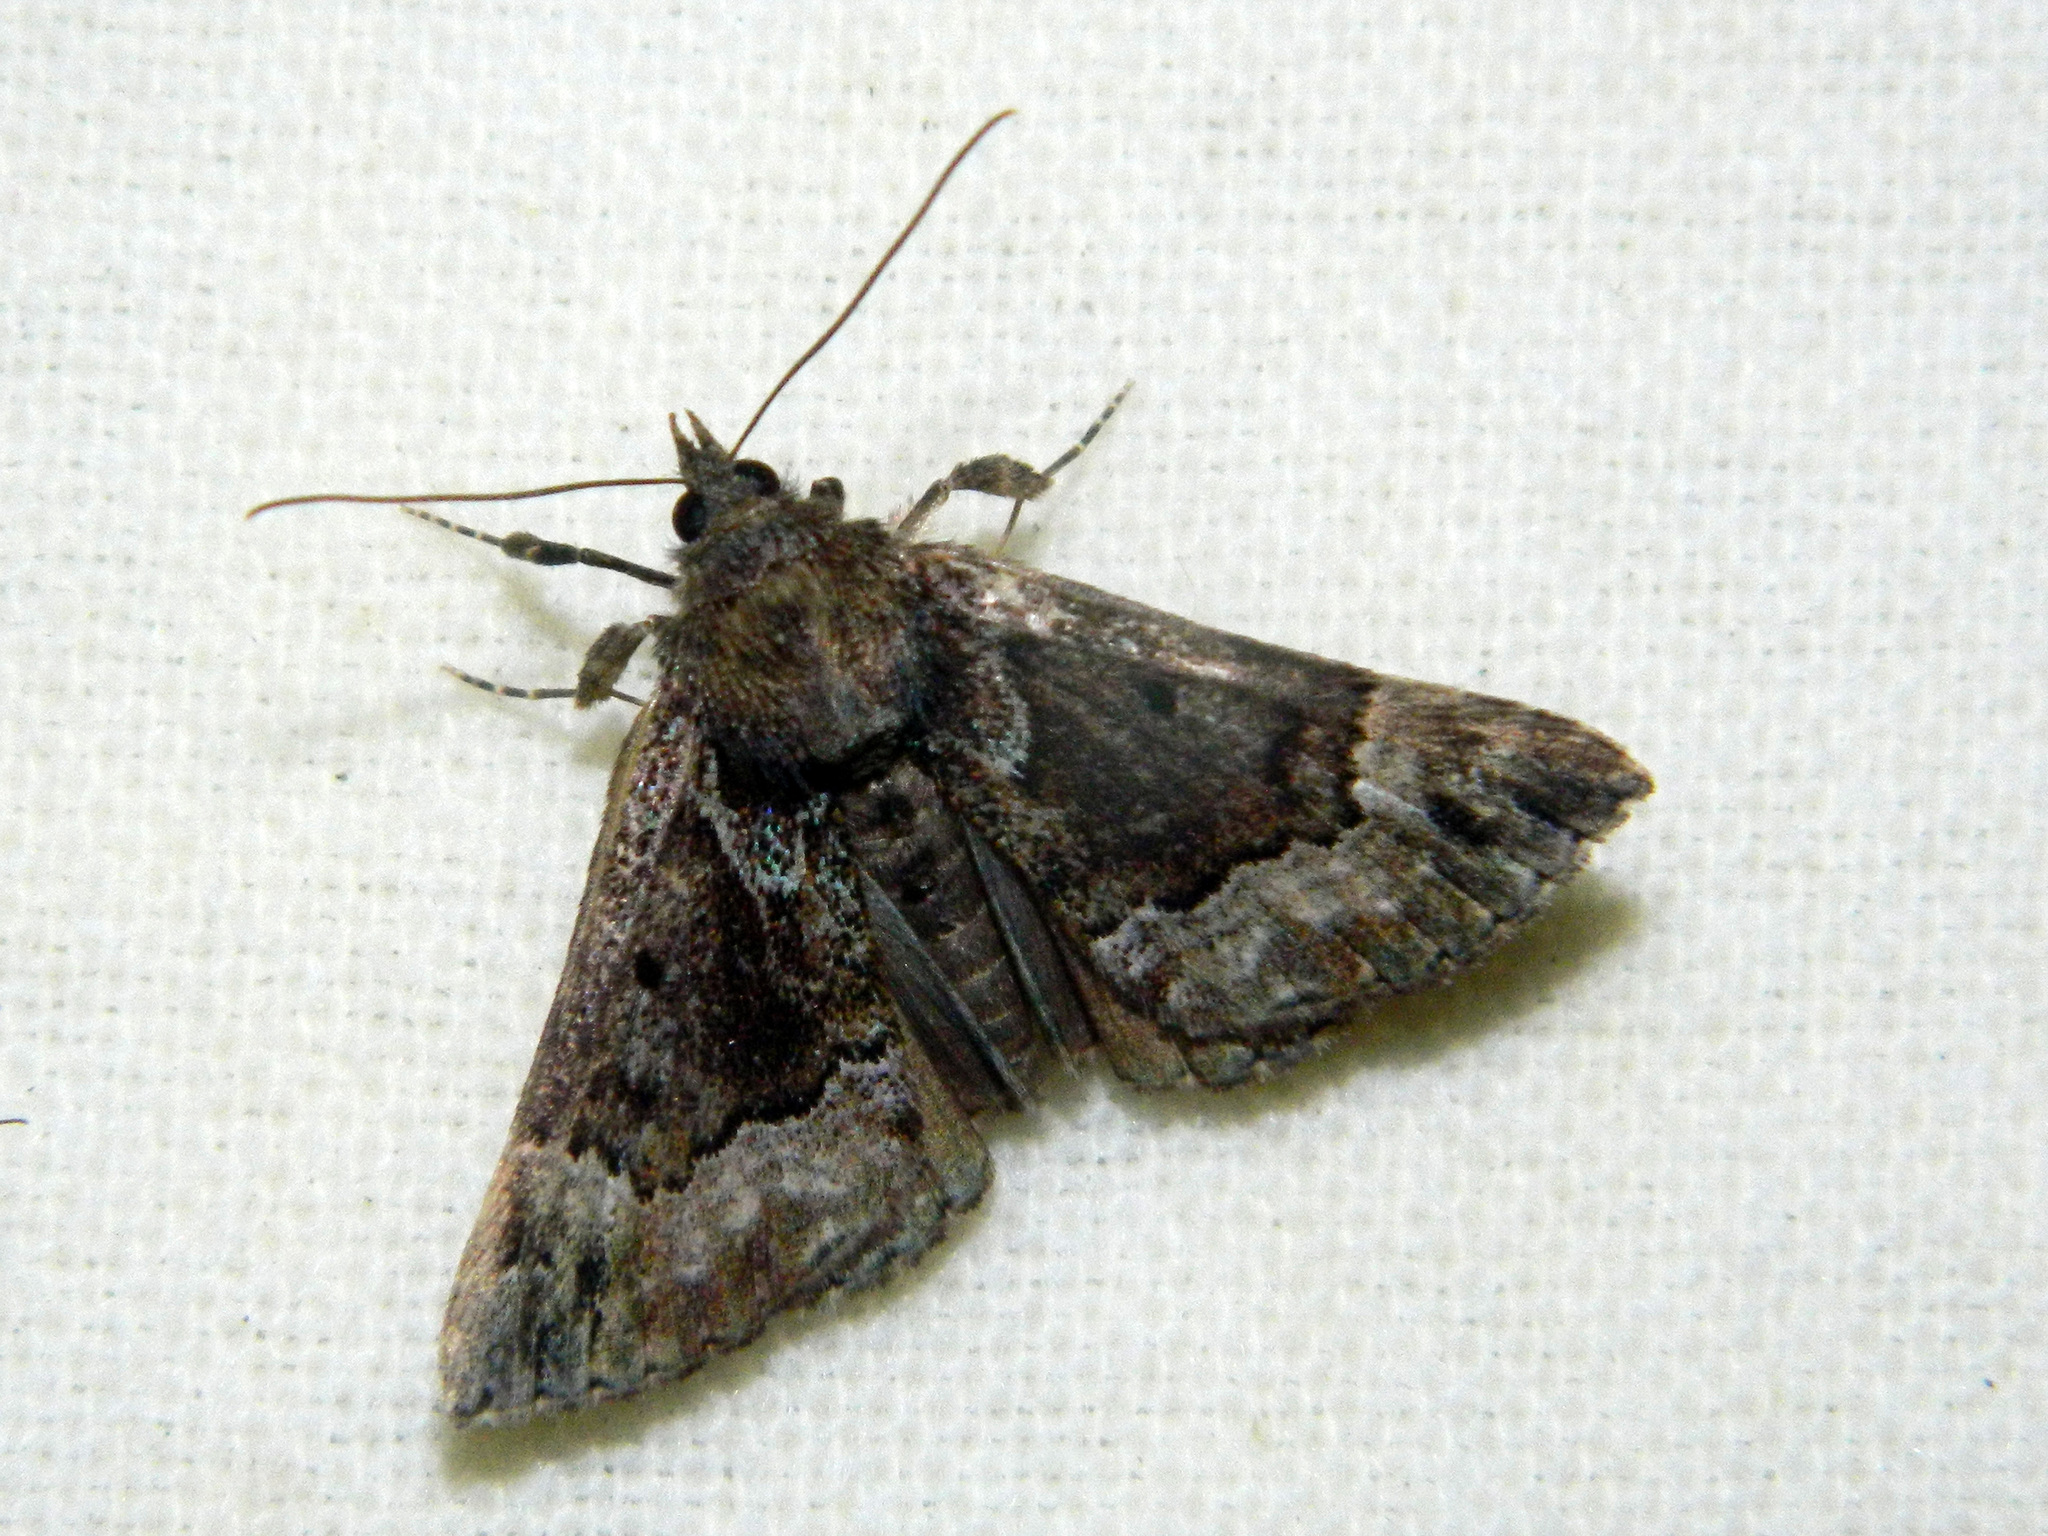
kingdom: Animalia
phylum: Arthropoda
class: Insecta
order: Lepidoptera
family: Erebidae
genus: Hypena
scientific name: Hypena palparia
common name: Mottled bomolocha moth
